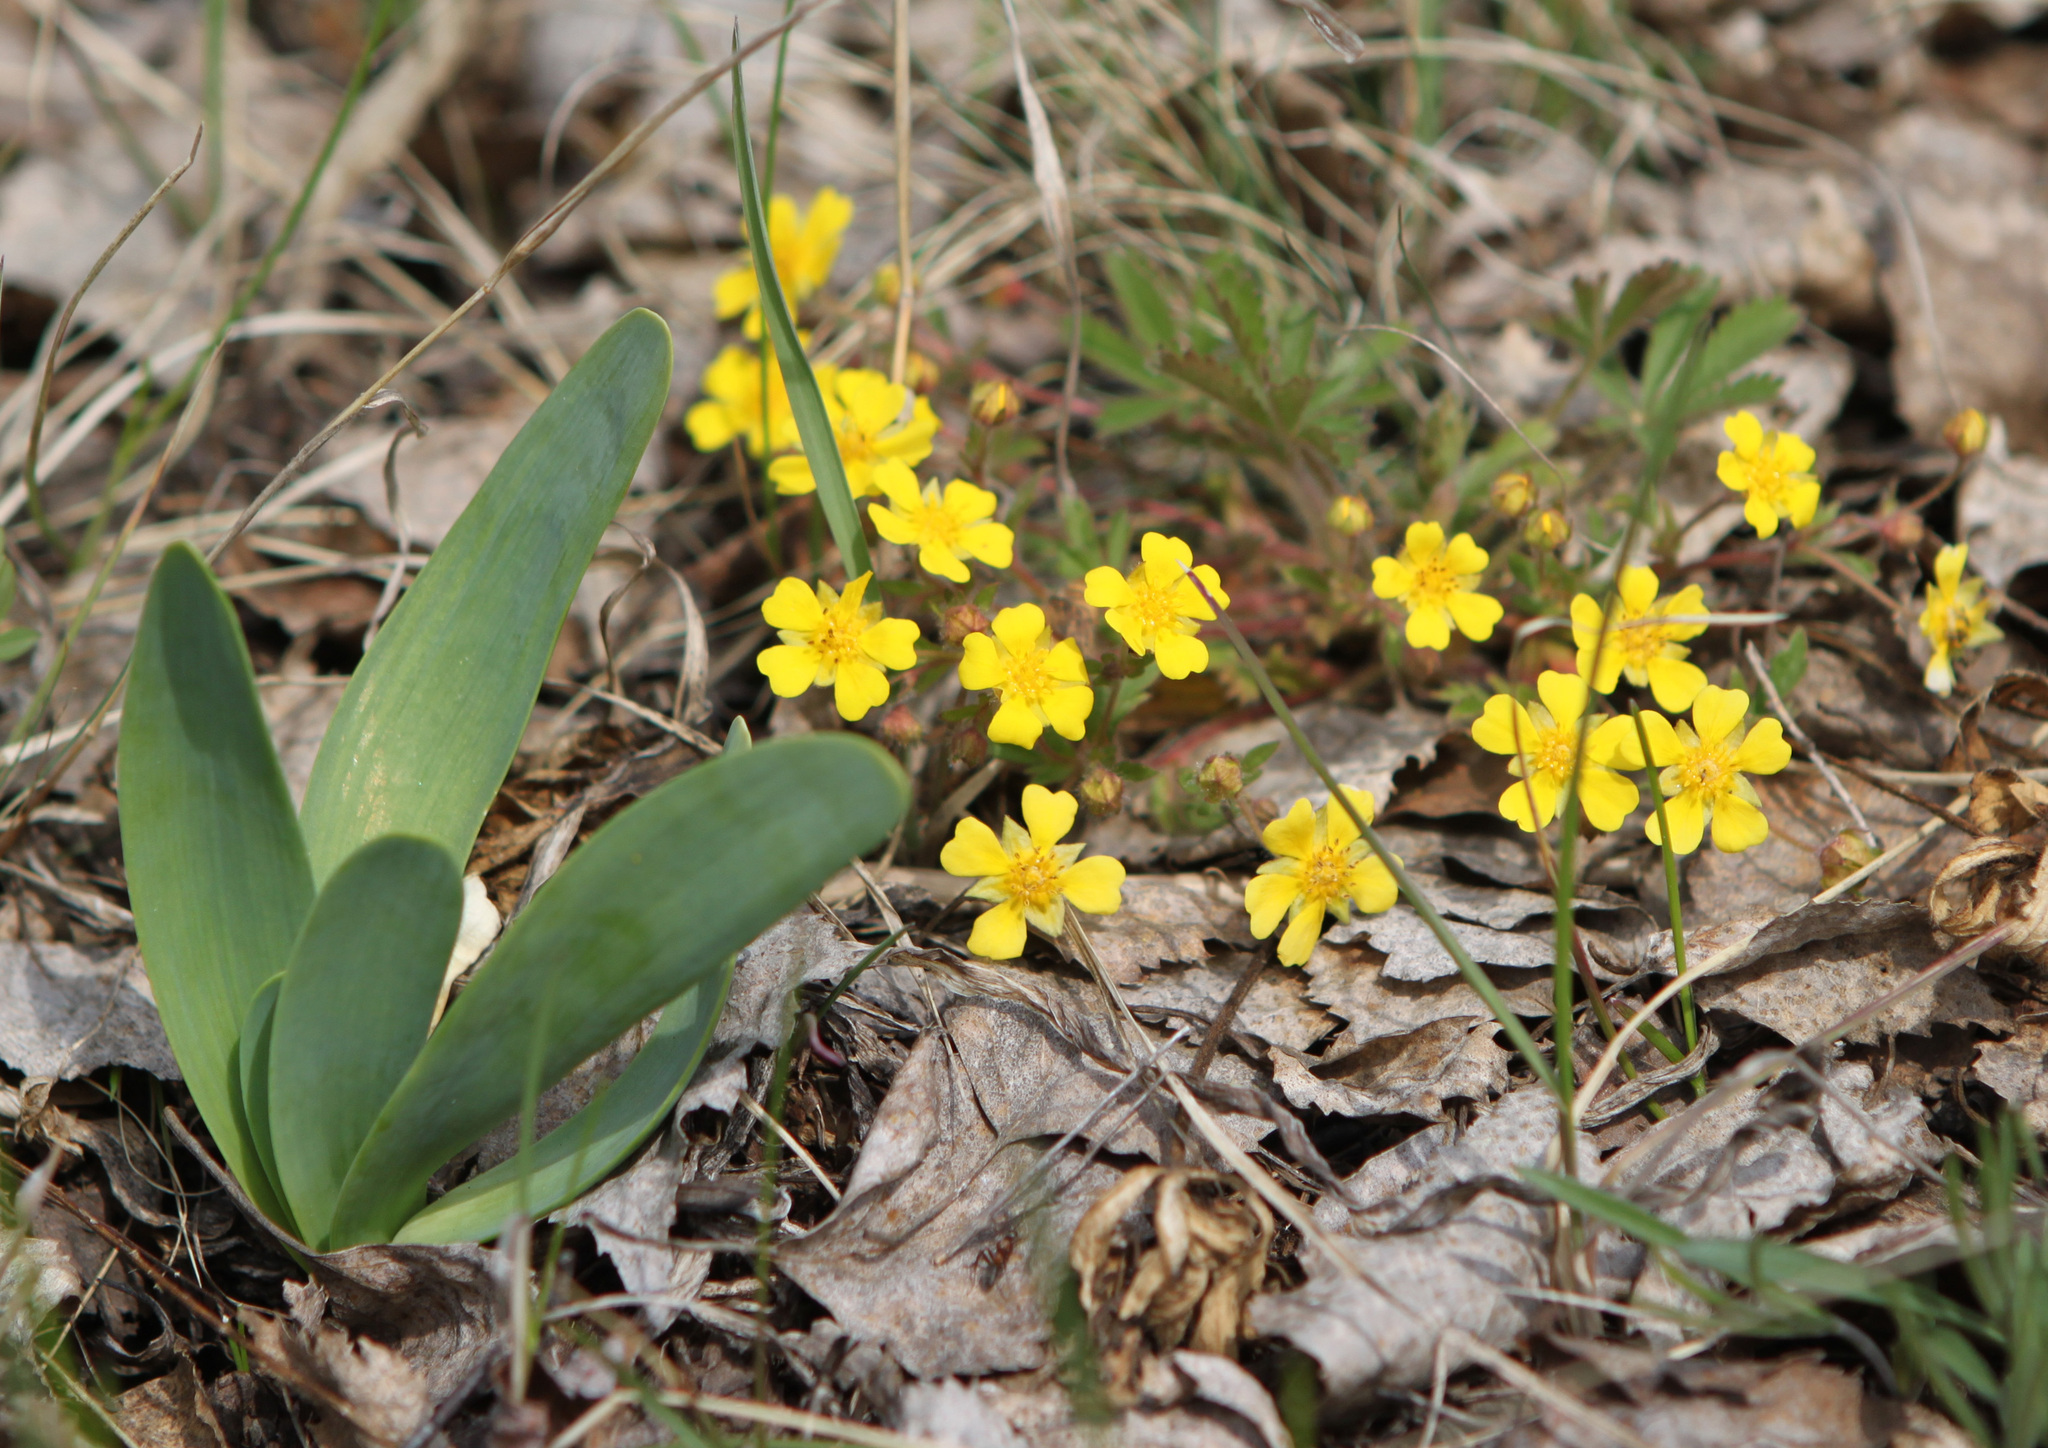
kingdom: Plantae
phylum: Tracheophyta
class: Magnoliopsida
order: Rosales
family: Rosaceae
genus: Potentilla
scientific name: Potentilla humifusa
